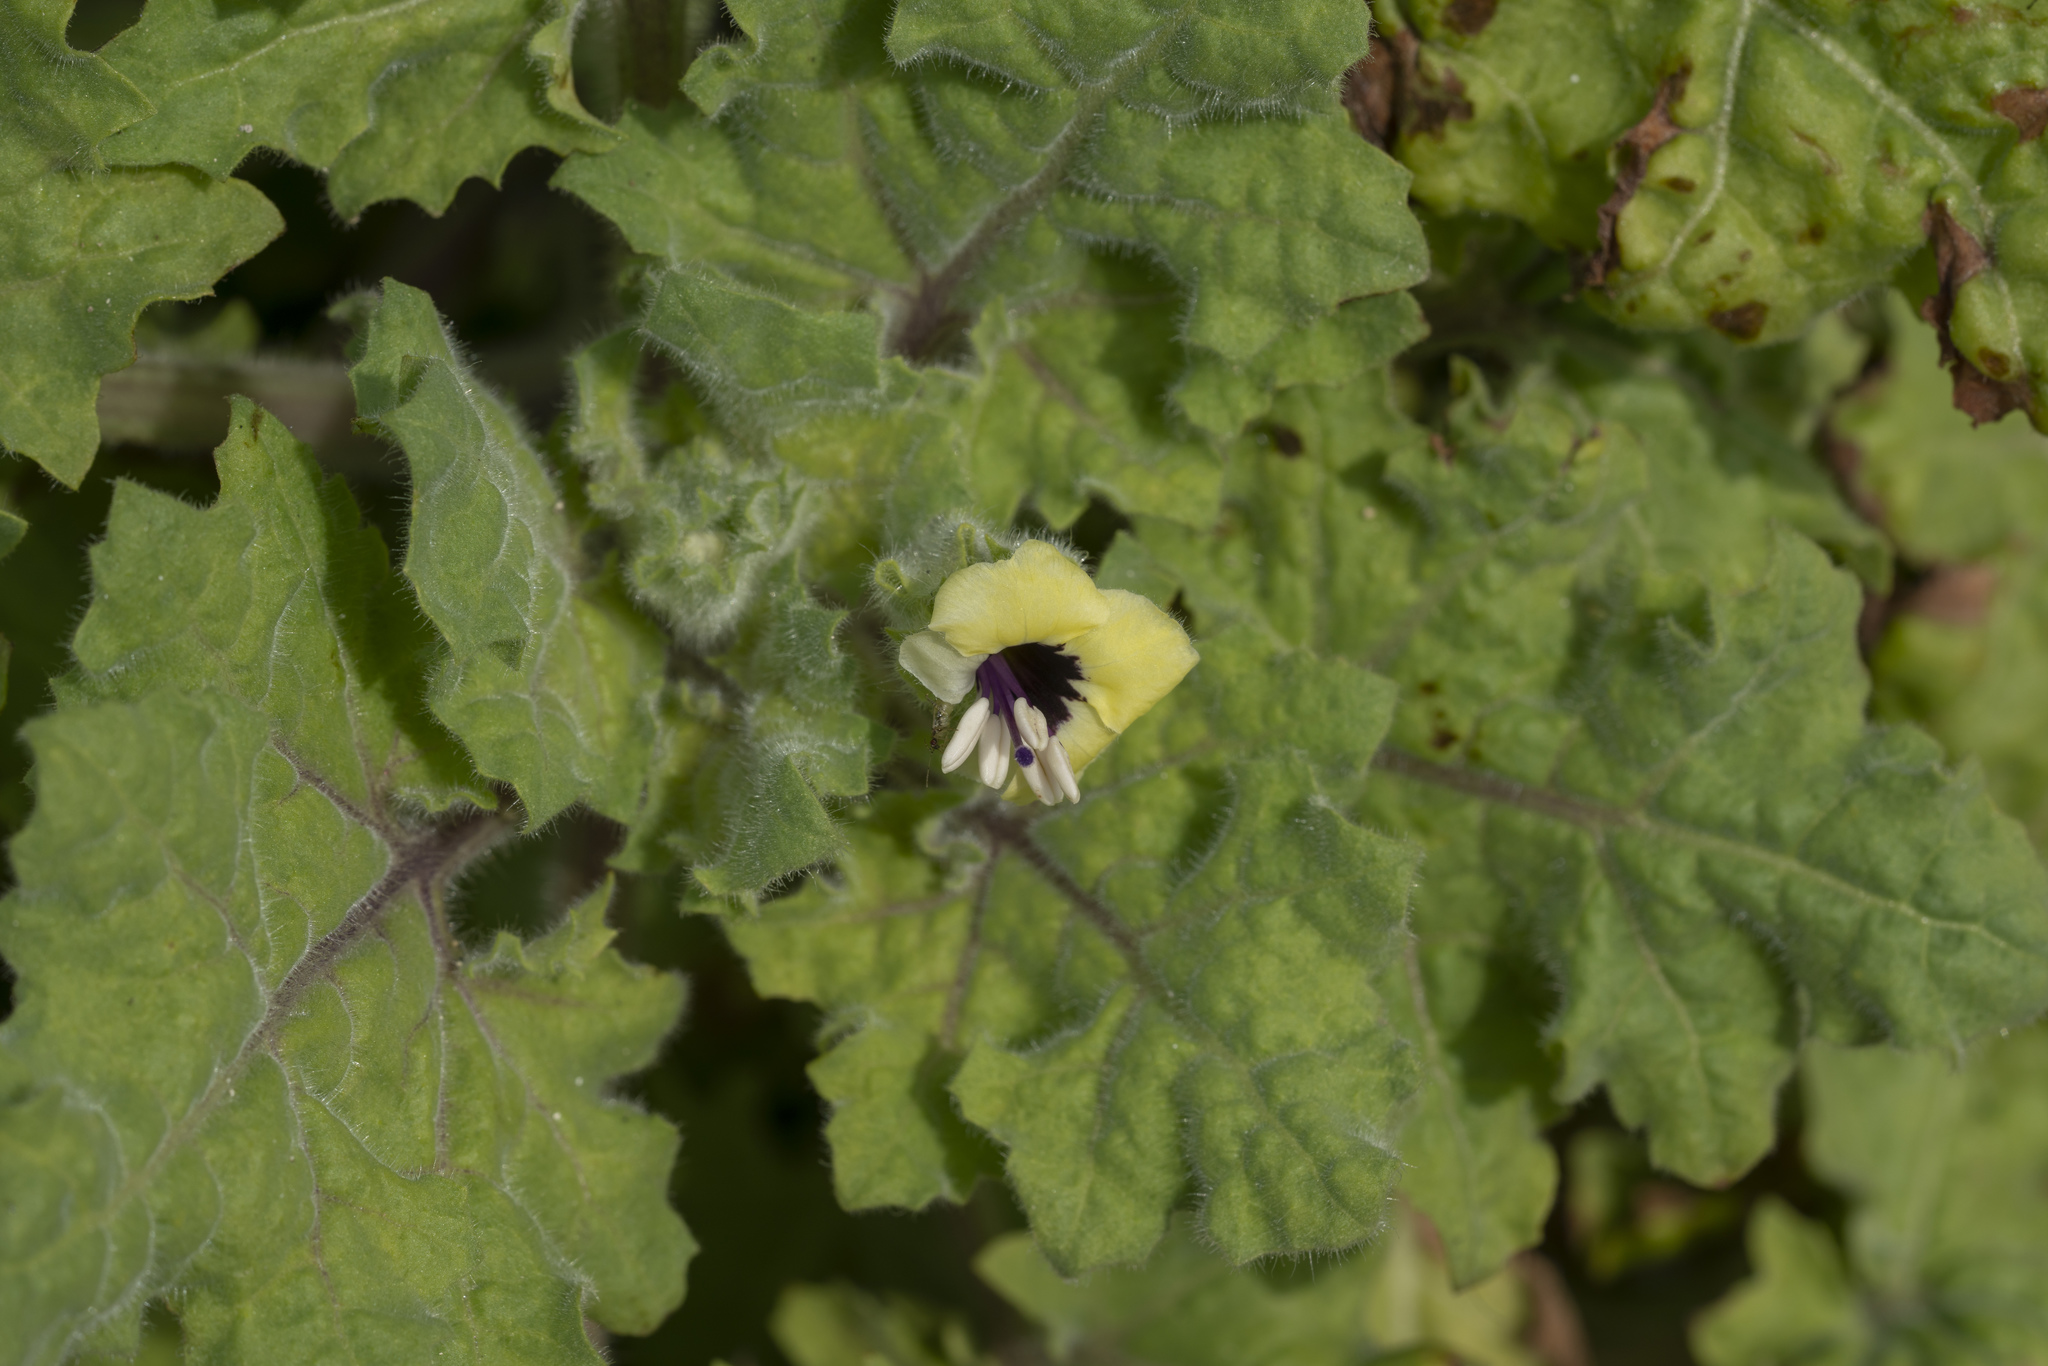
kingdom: Plantae
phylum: Tracheophyta
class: Magnoliopsida
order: Solanales
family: Solanaceae
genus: Hyoscyamus
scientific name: Hyoscyamus aureus
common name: Golden henbane
